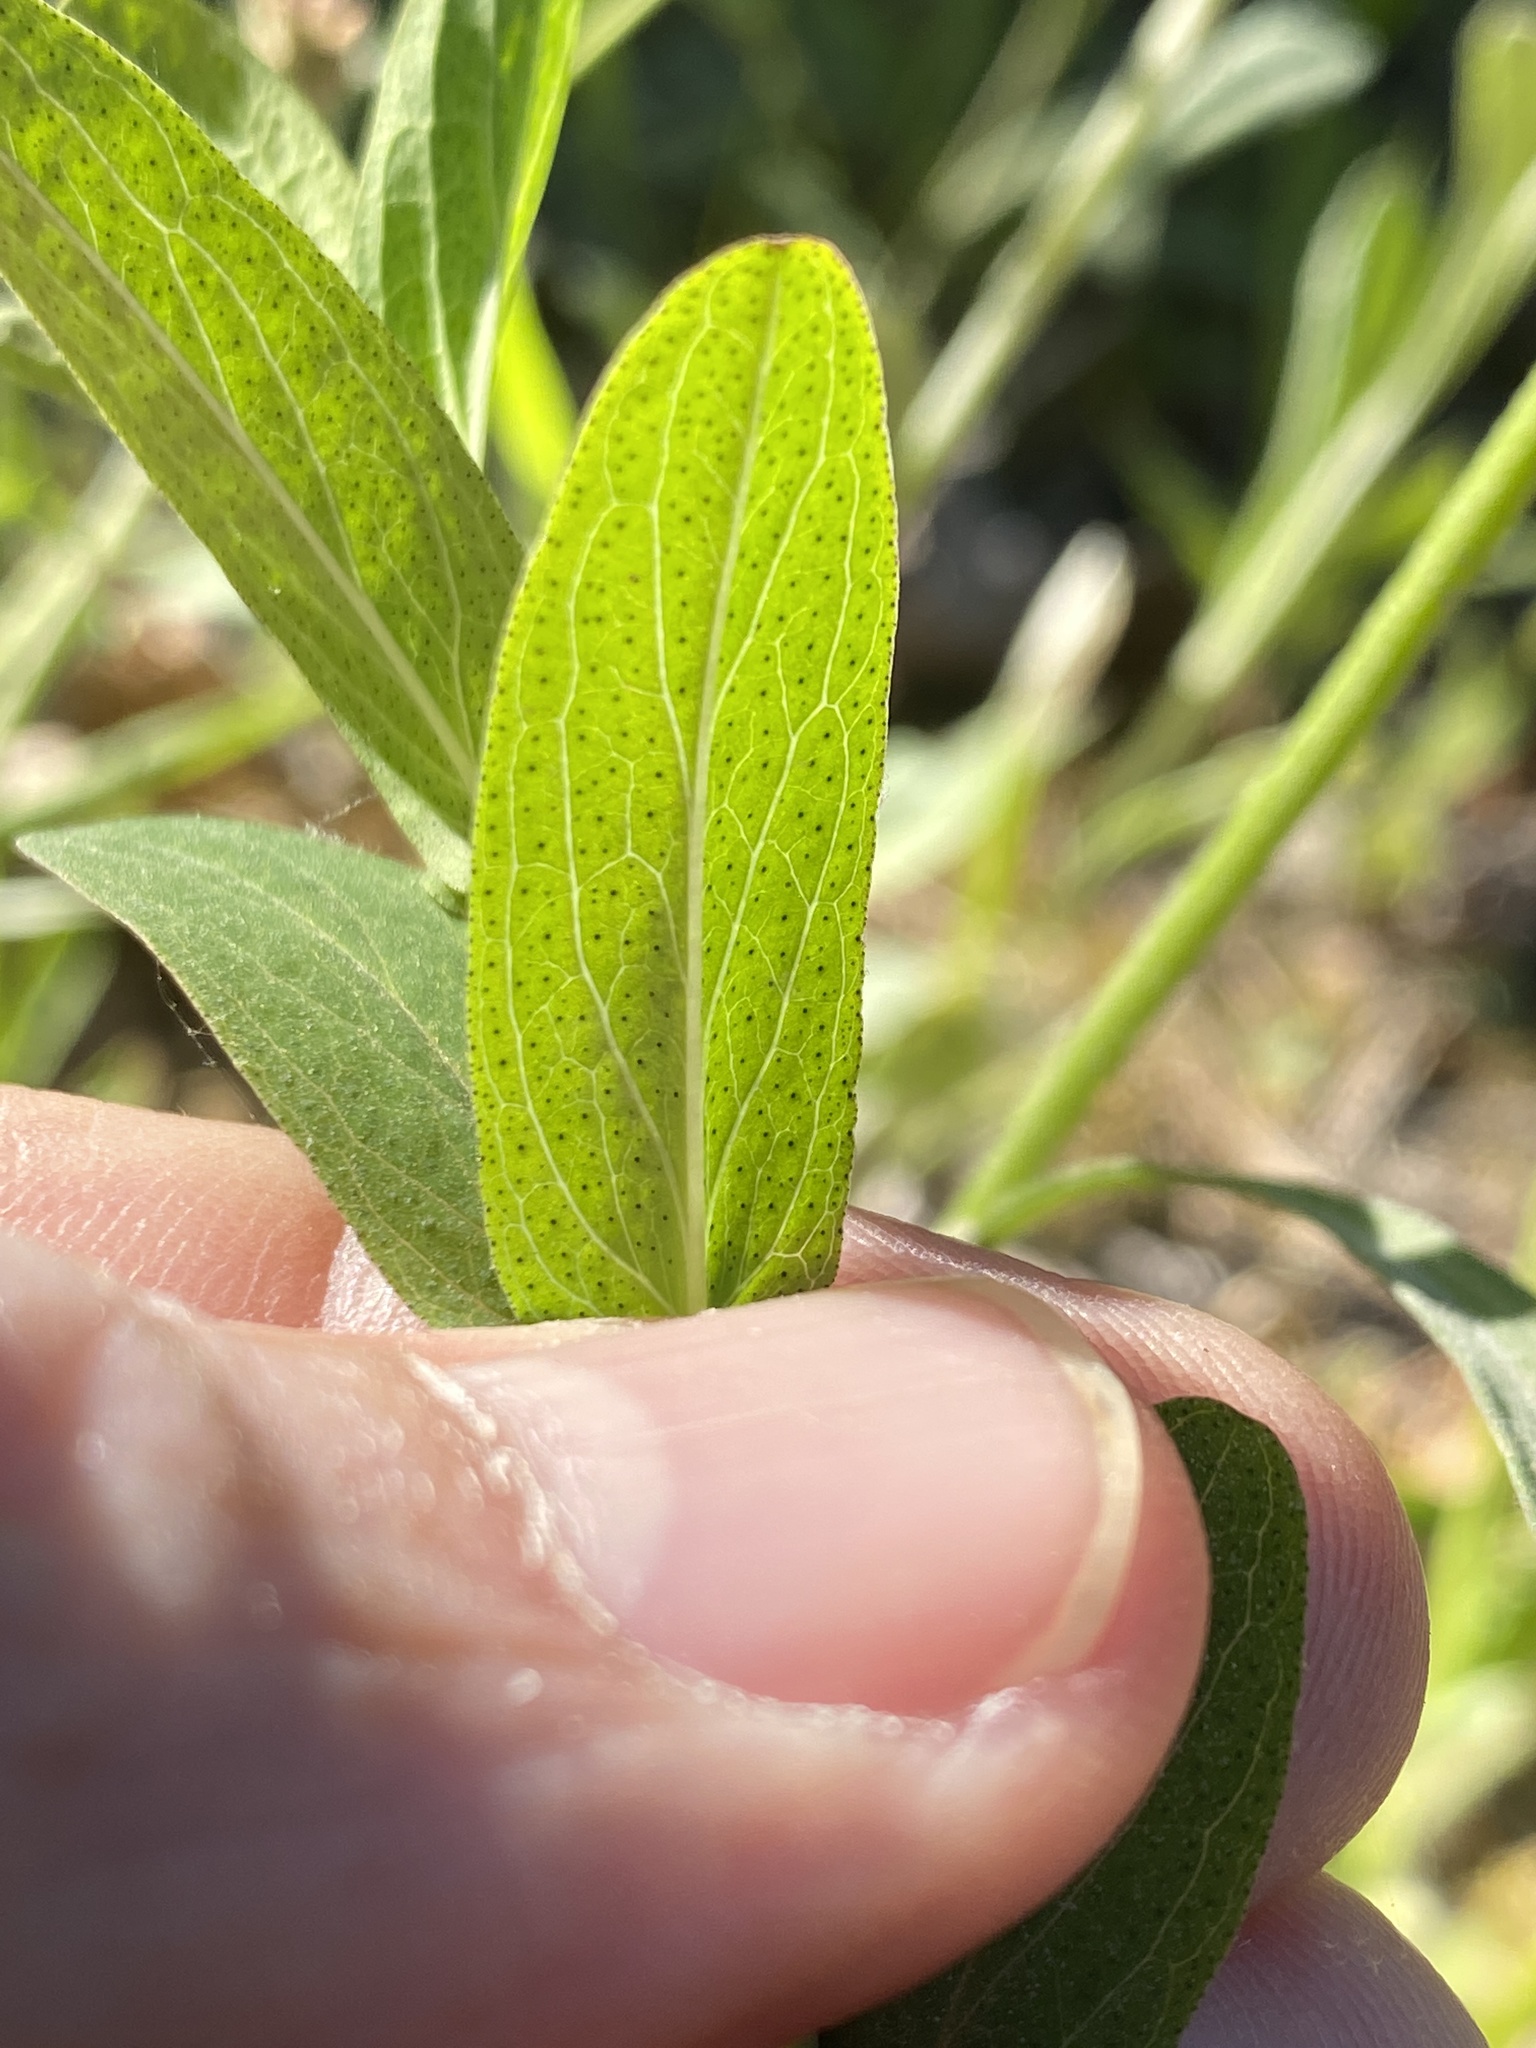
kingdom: Plantae
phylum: Tracheophyta
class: Magnoliopsida
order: Malpighiales
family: Hypericaceae
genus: Hypericum
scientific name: Hypericum punctatum
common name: Spotted st. john's-wort
